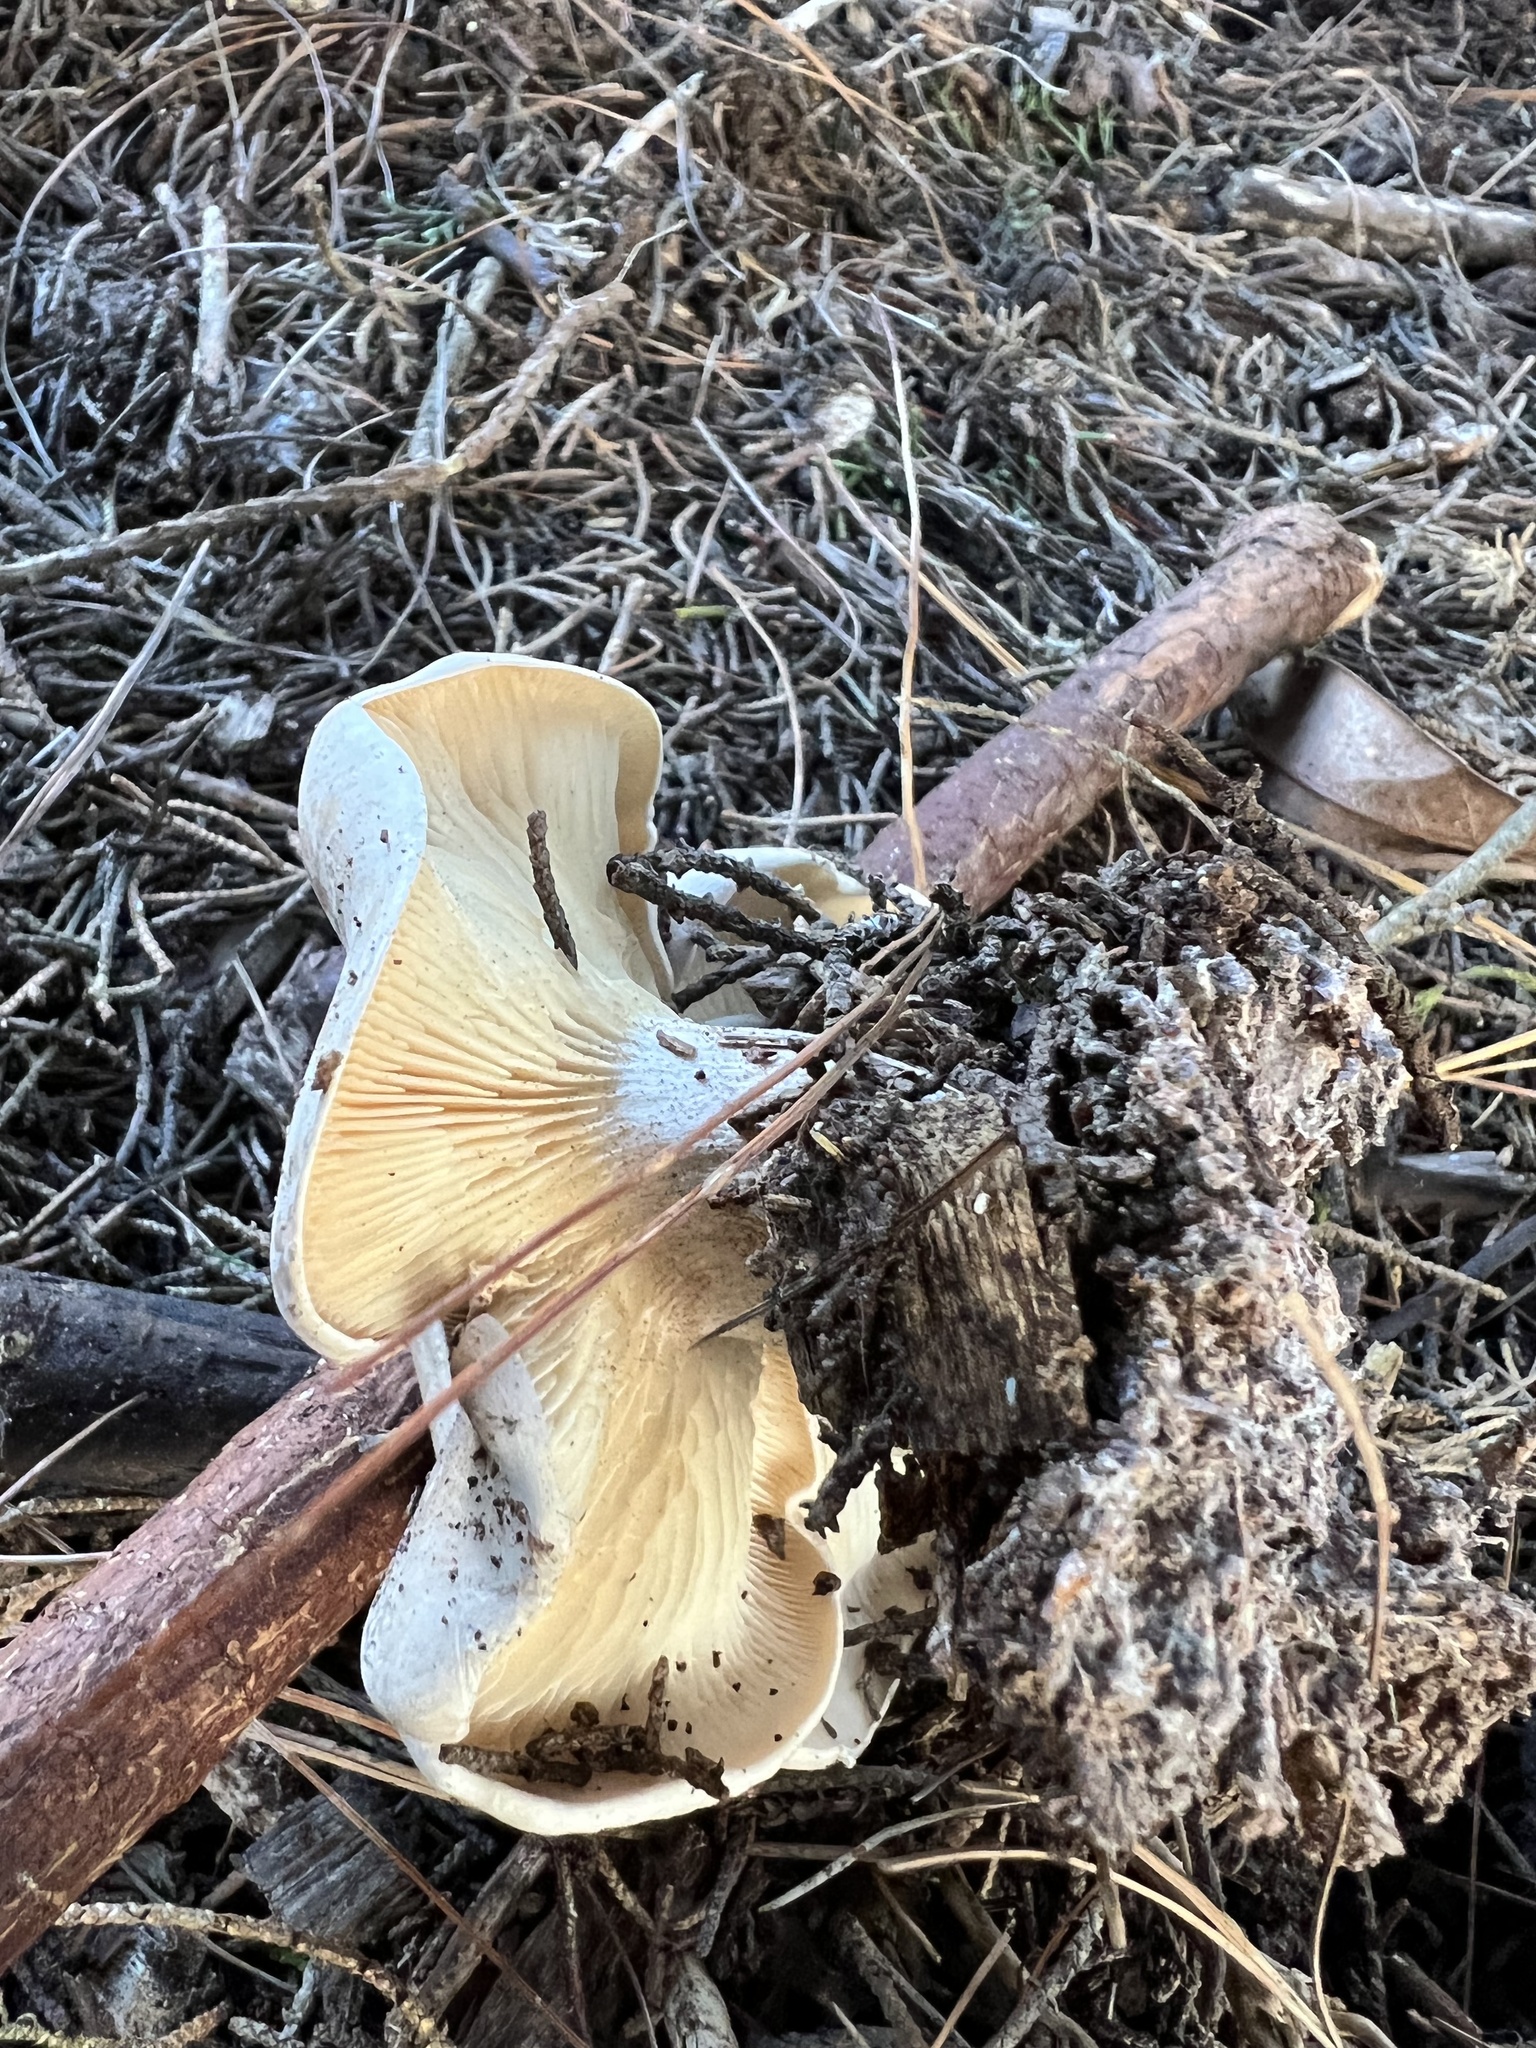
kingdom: Fungi
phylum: Basidiomycota
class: Agaricomycetes
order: Agaricales
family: Tricholomataceae
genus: Clitocybe
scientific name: Clitocybe nebularis
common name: Clouded agaric
